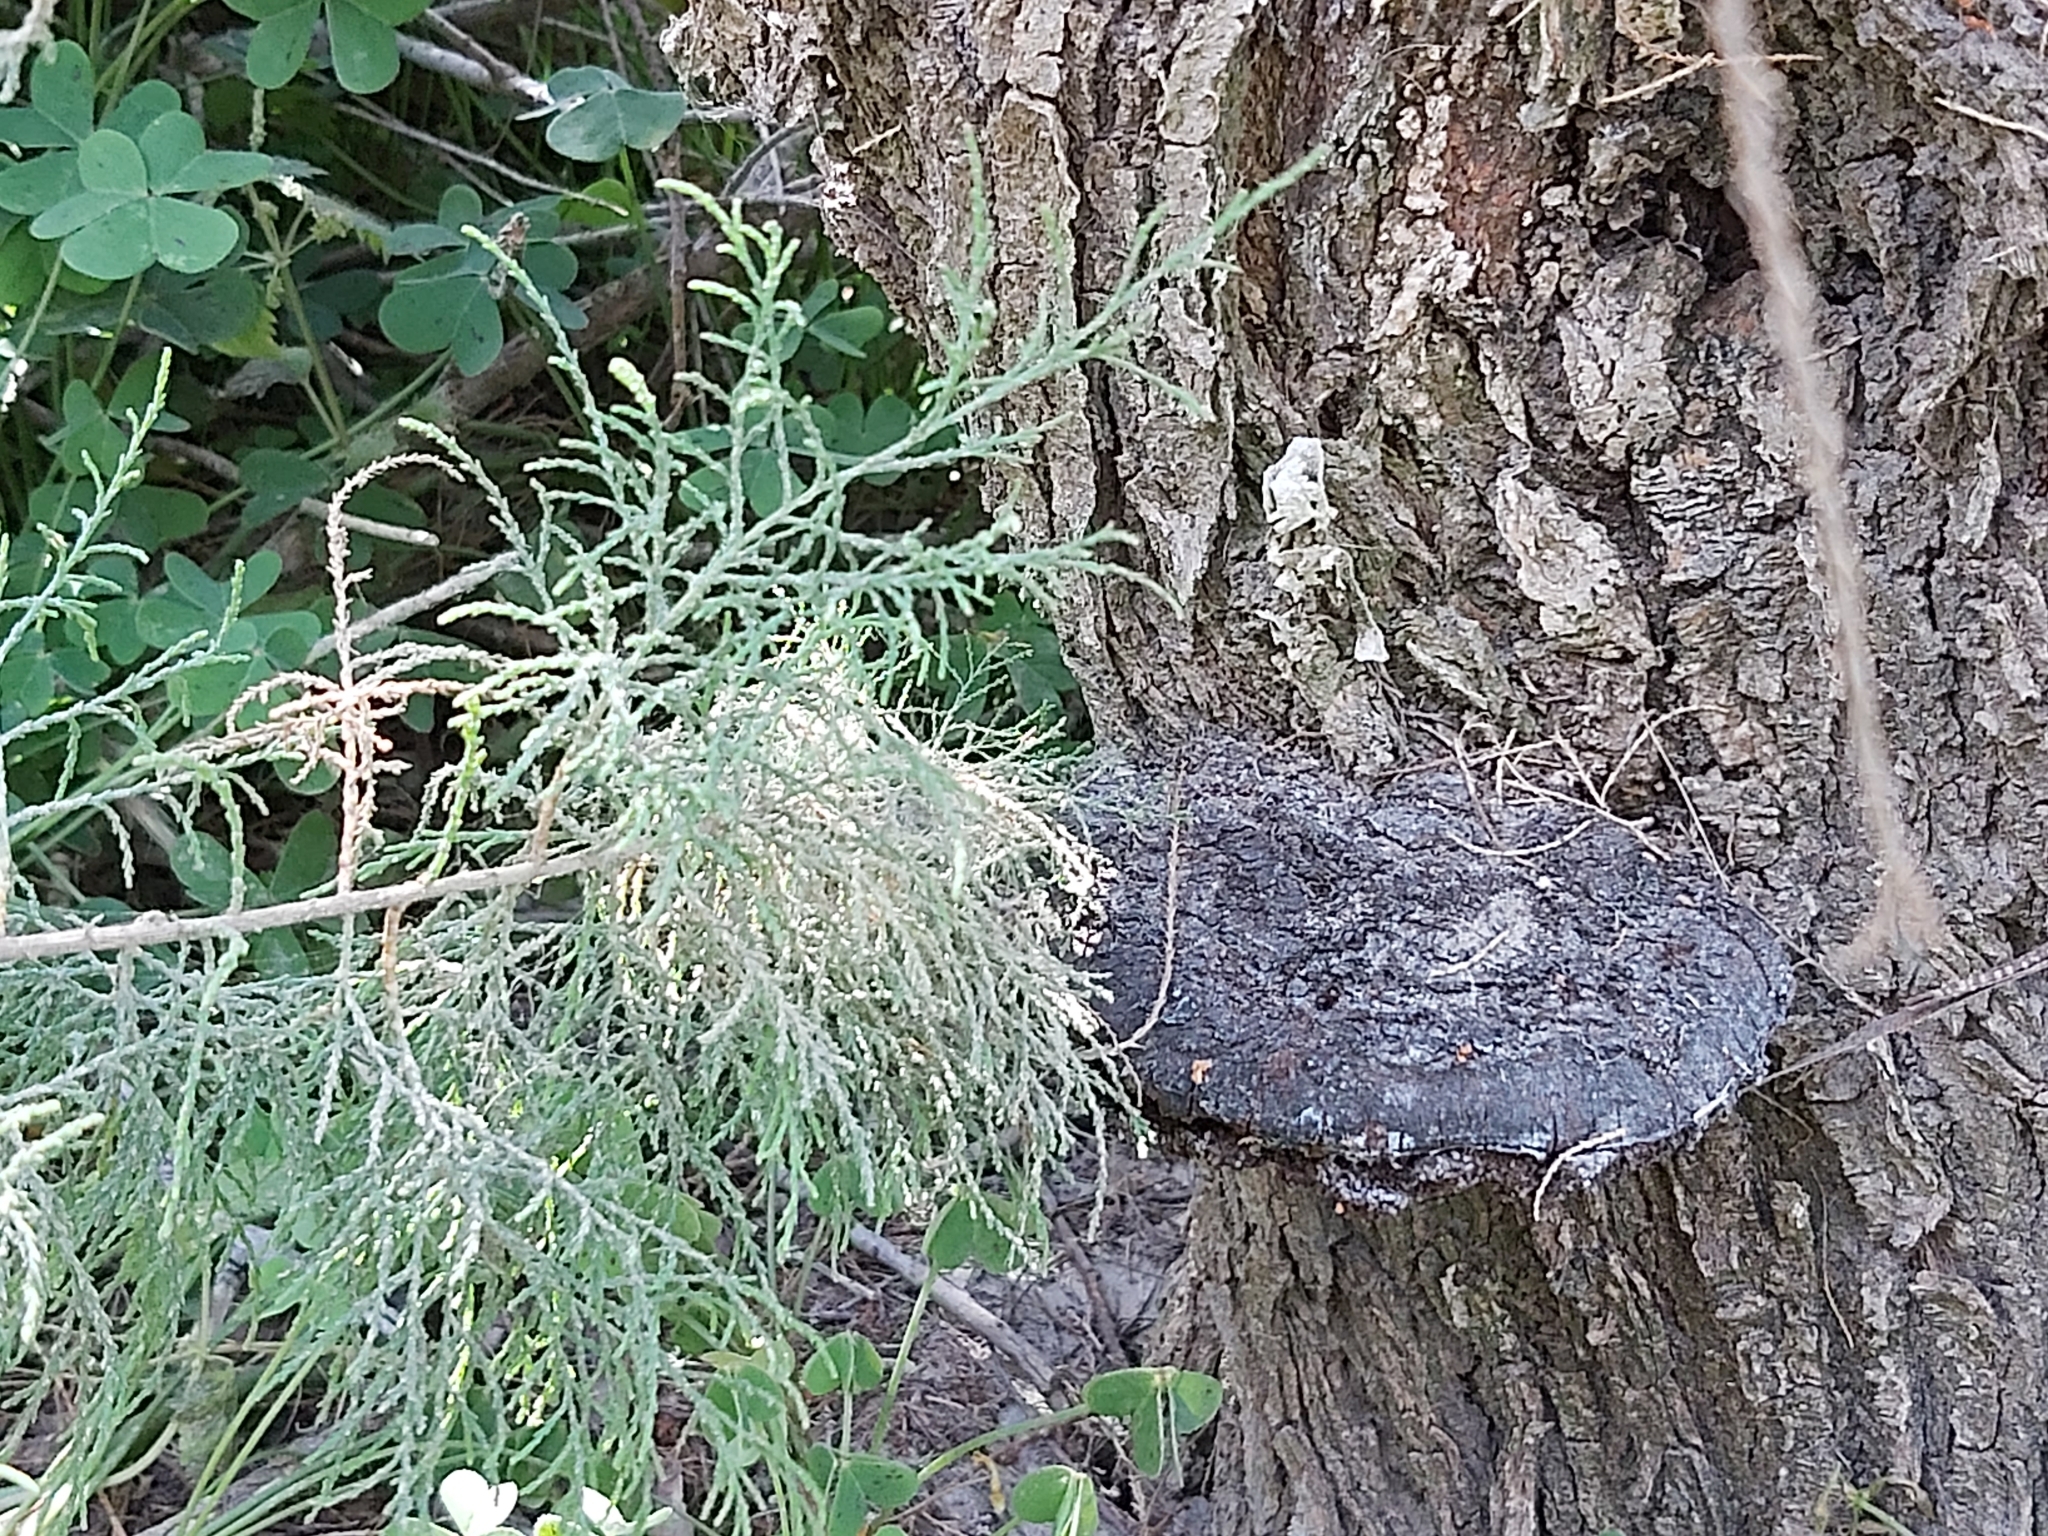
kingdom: Fungi
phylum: Basidiomycota
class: Agaricomycetes
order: Hymenochaetales
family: Hymenochaetaceae
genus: Inocutis
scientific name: Inocutis tamaricis
